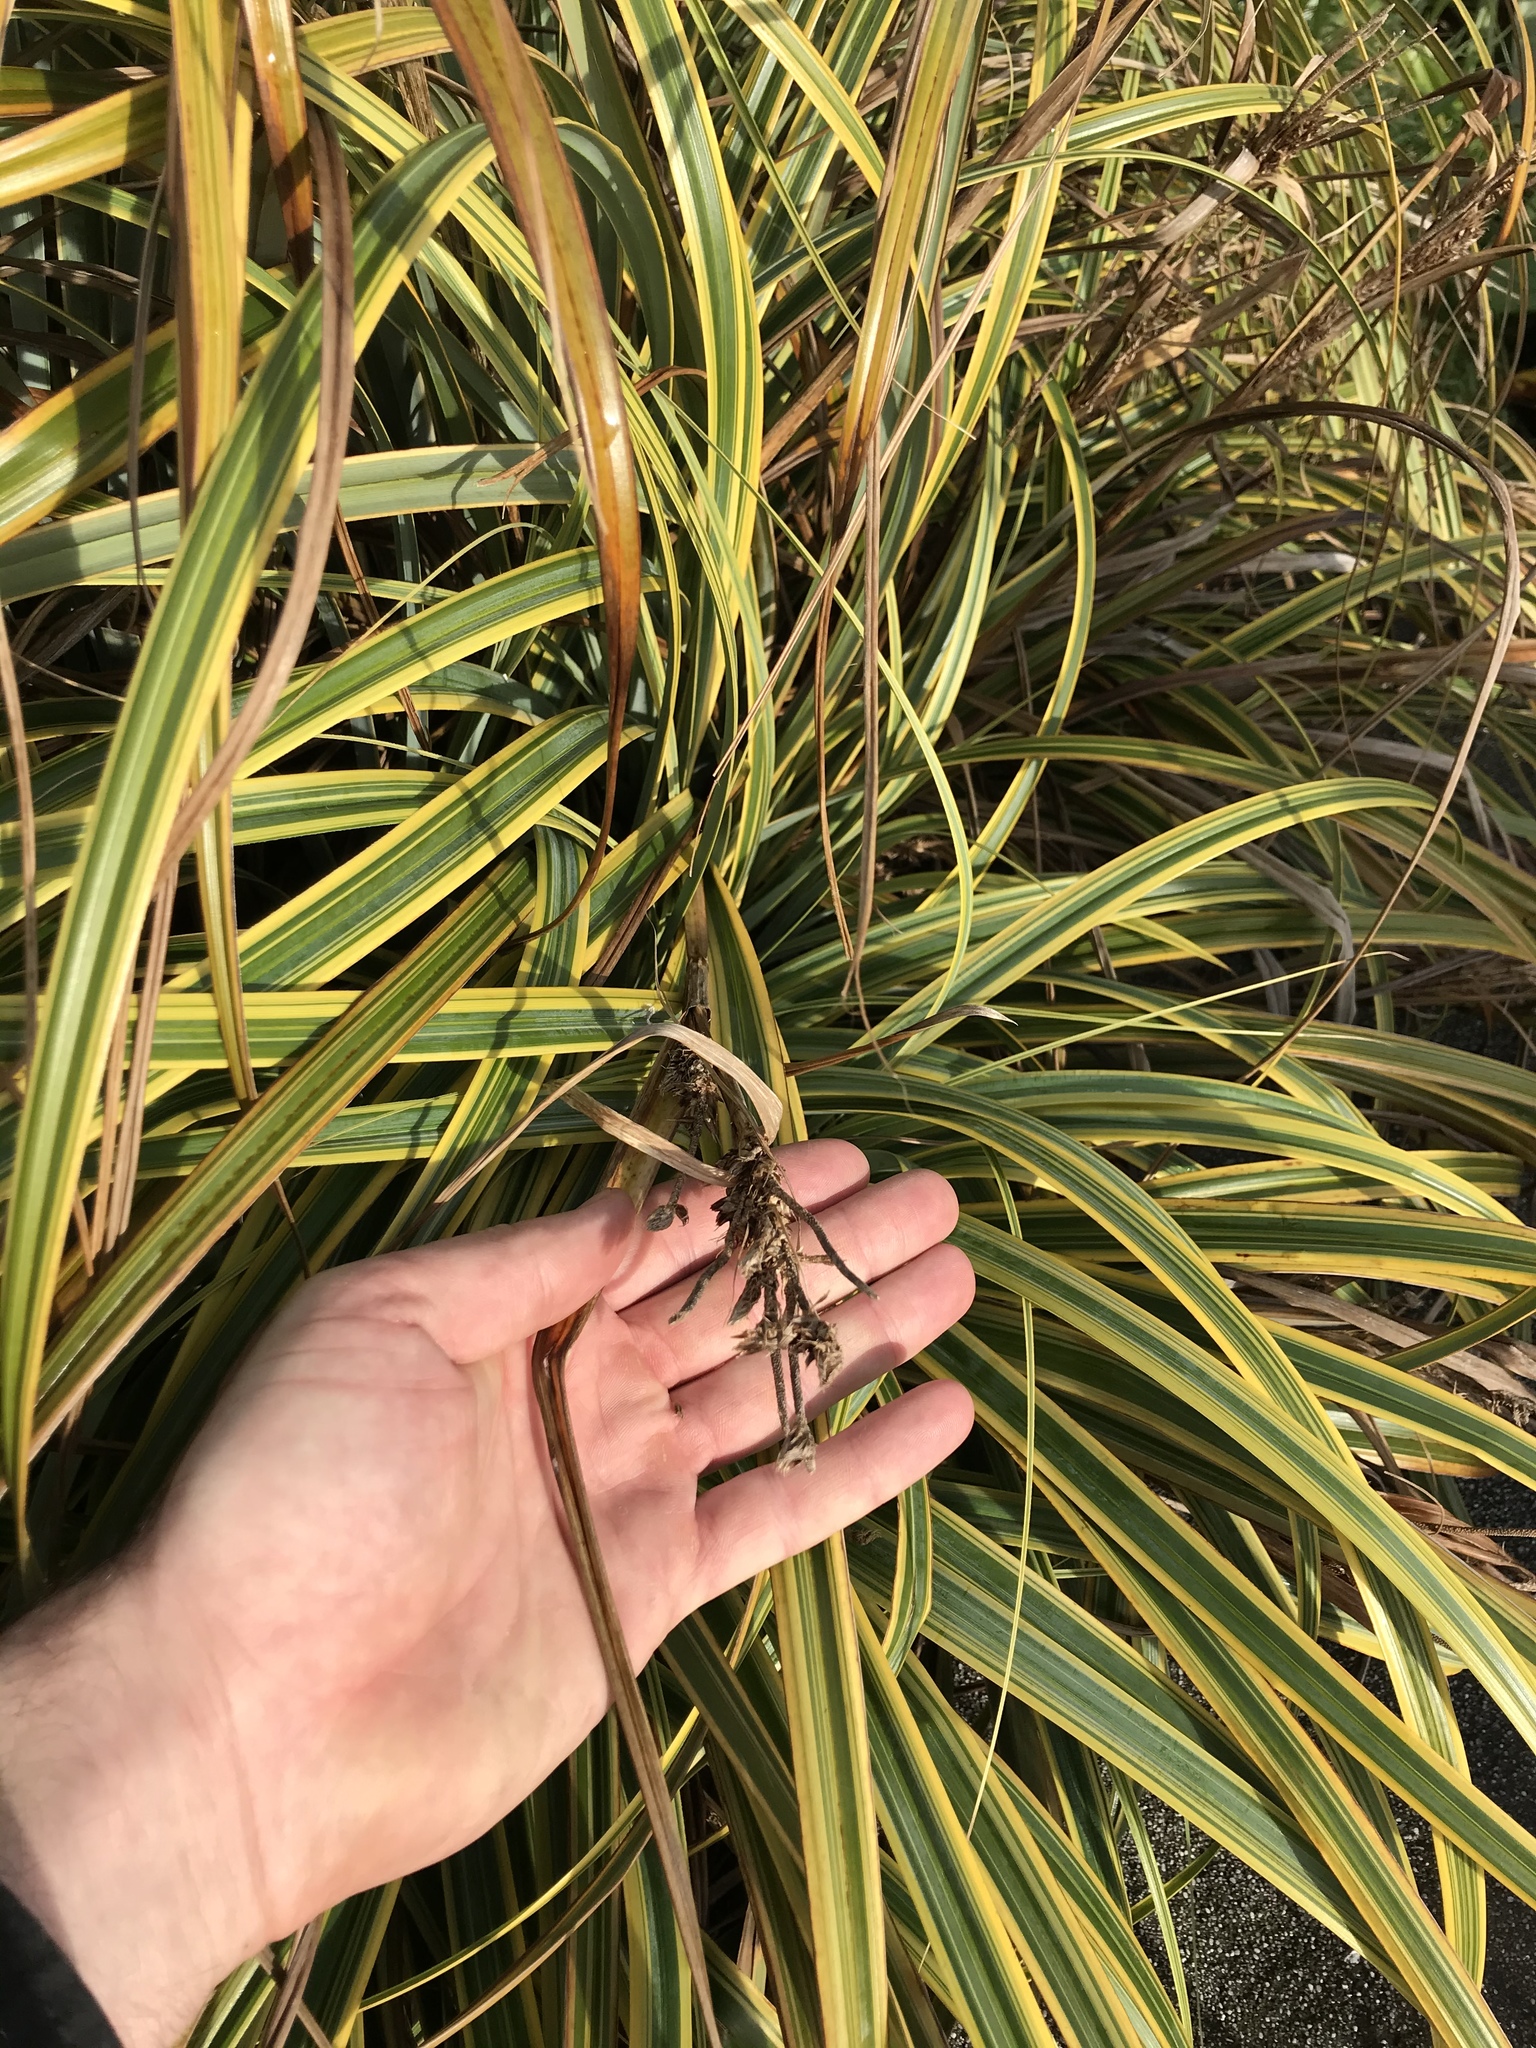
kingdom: Plantae
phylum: Tracheophyta
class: Liliopsida
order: Poales
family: Cyperaceae
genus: Carex
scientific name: Carex trifida
